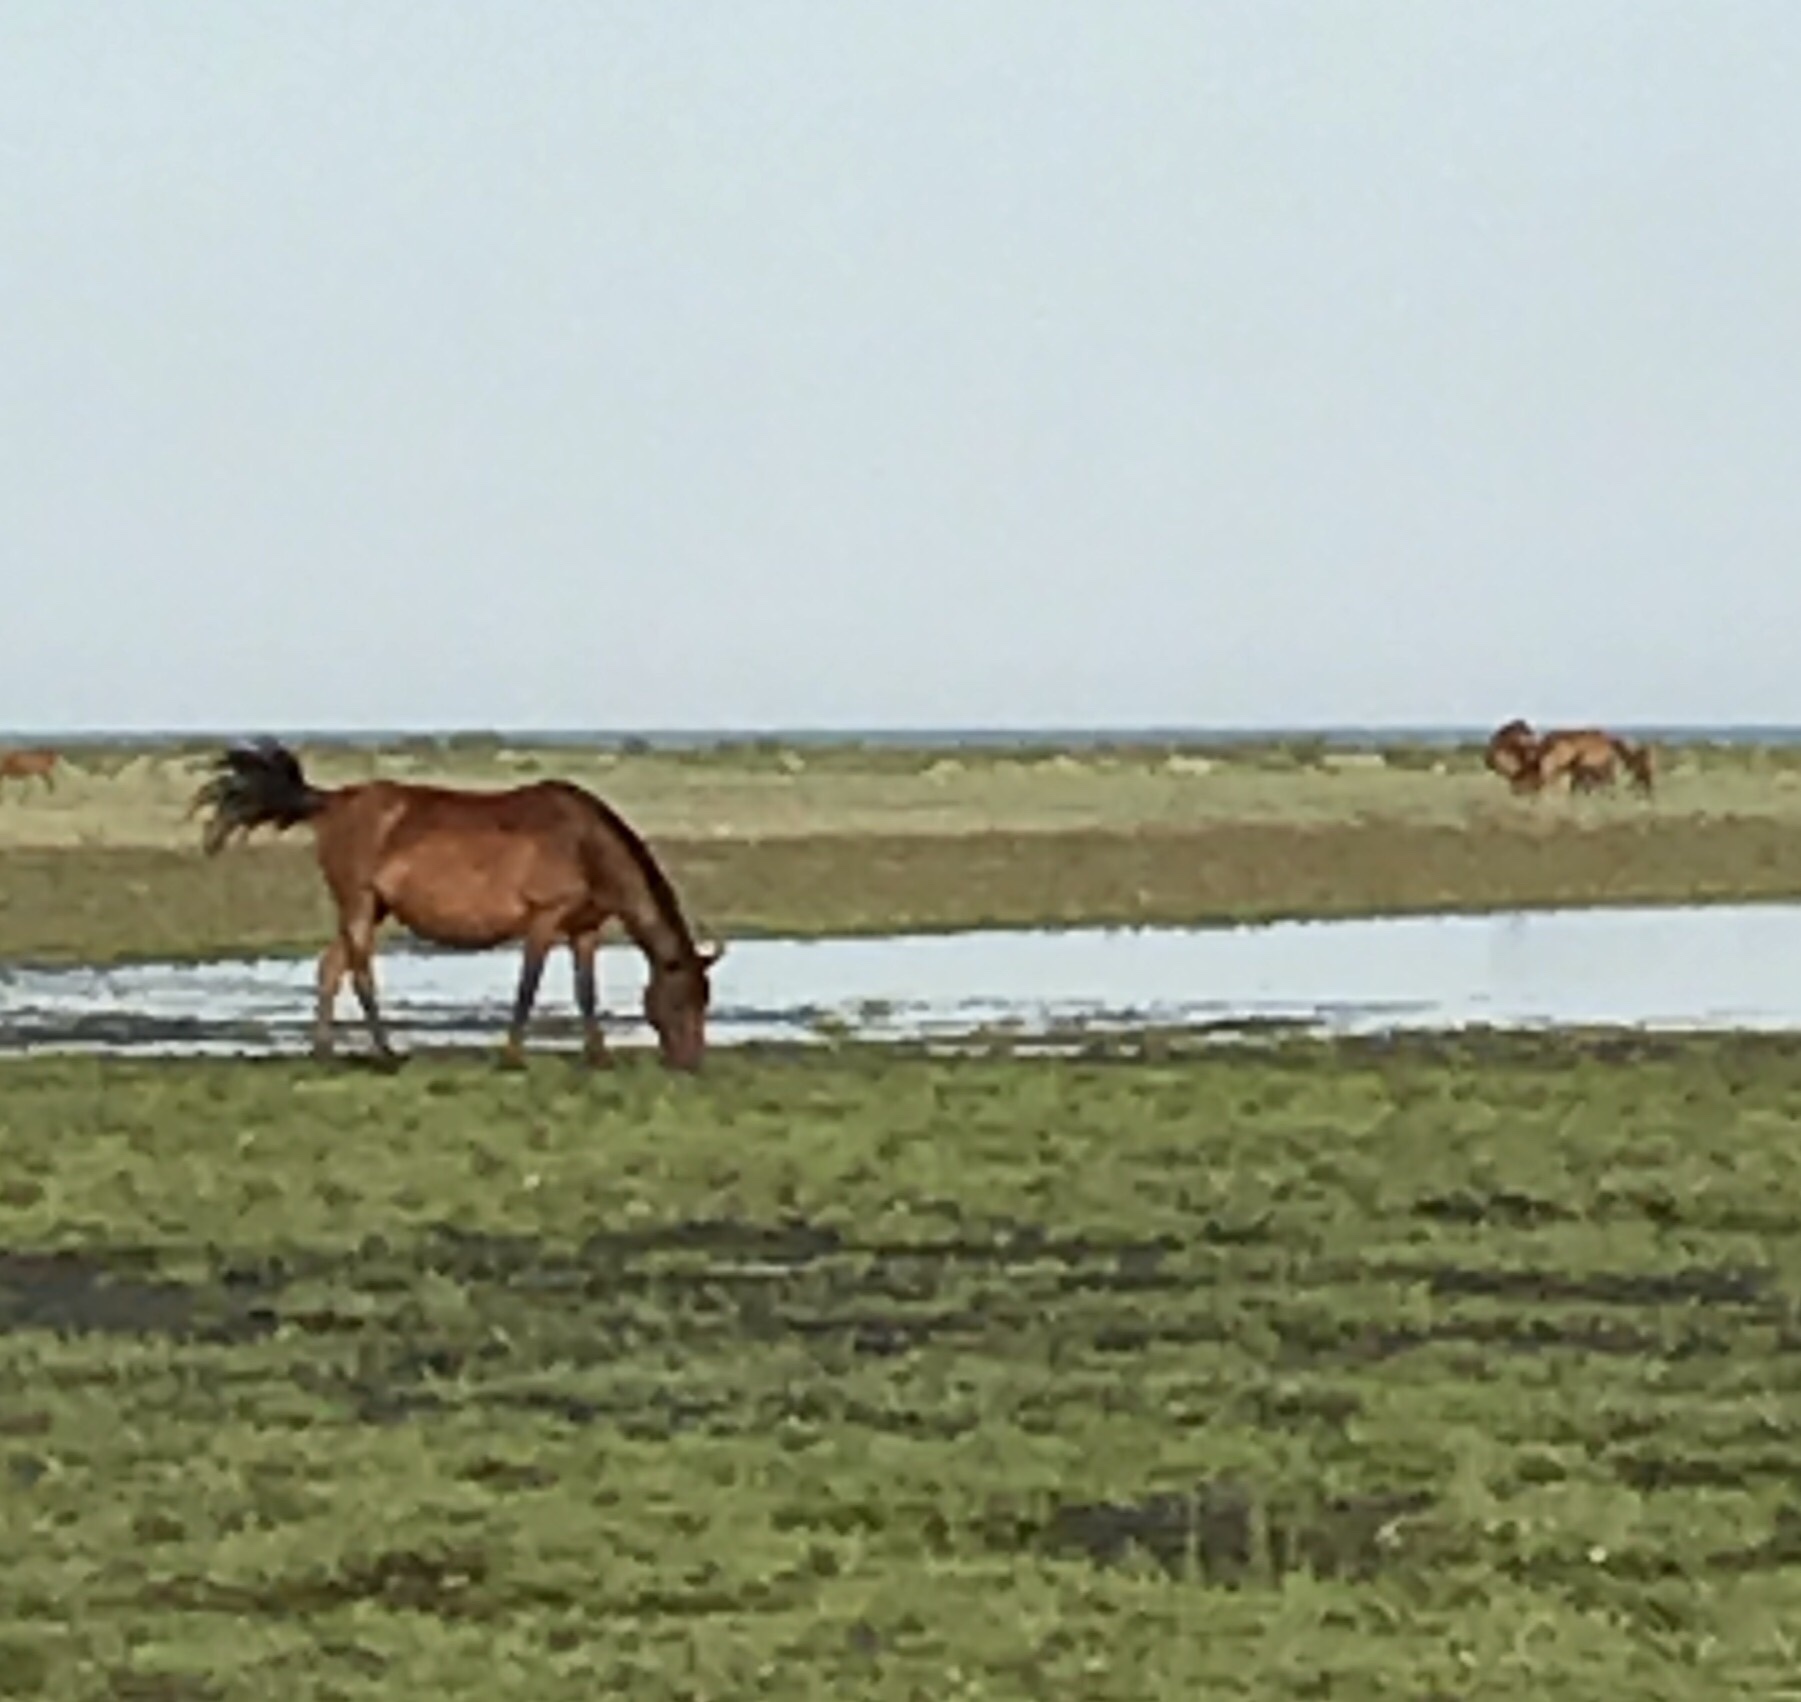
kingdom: Animalia
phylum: Chordata
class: Mammalia
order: Perissodactyla
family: Equidae
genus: Equus
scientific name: Equus caballus
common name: Horse
